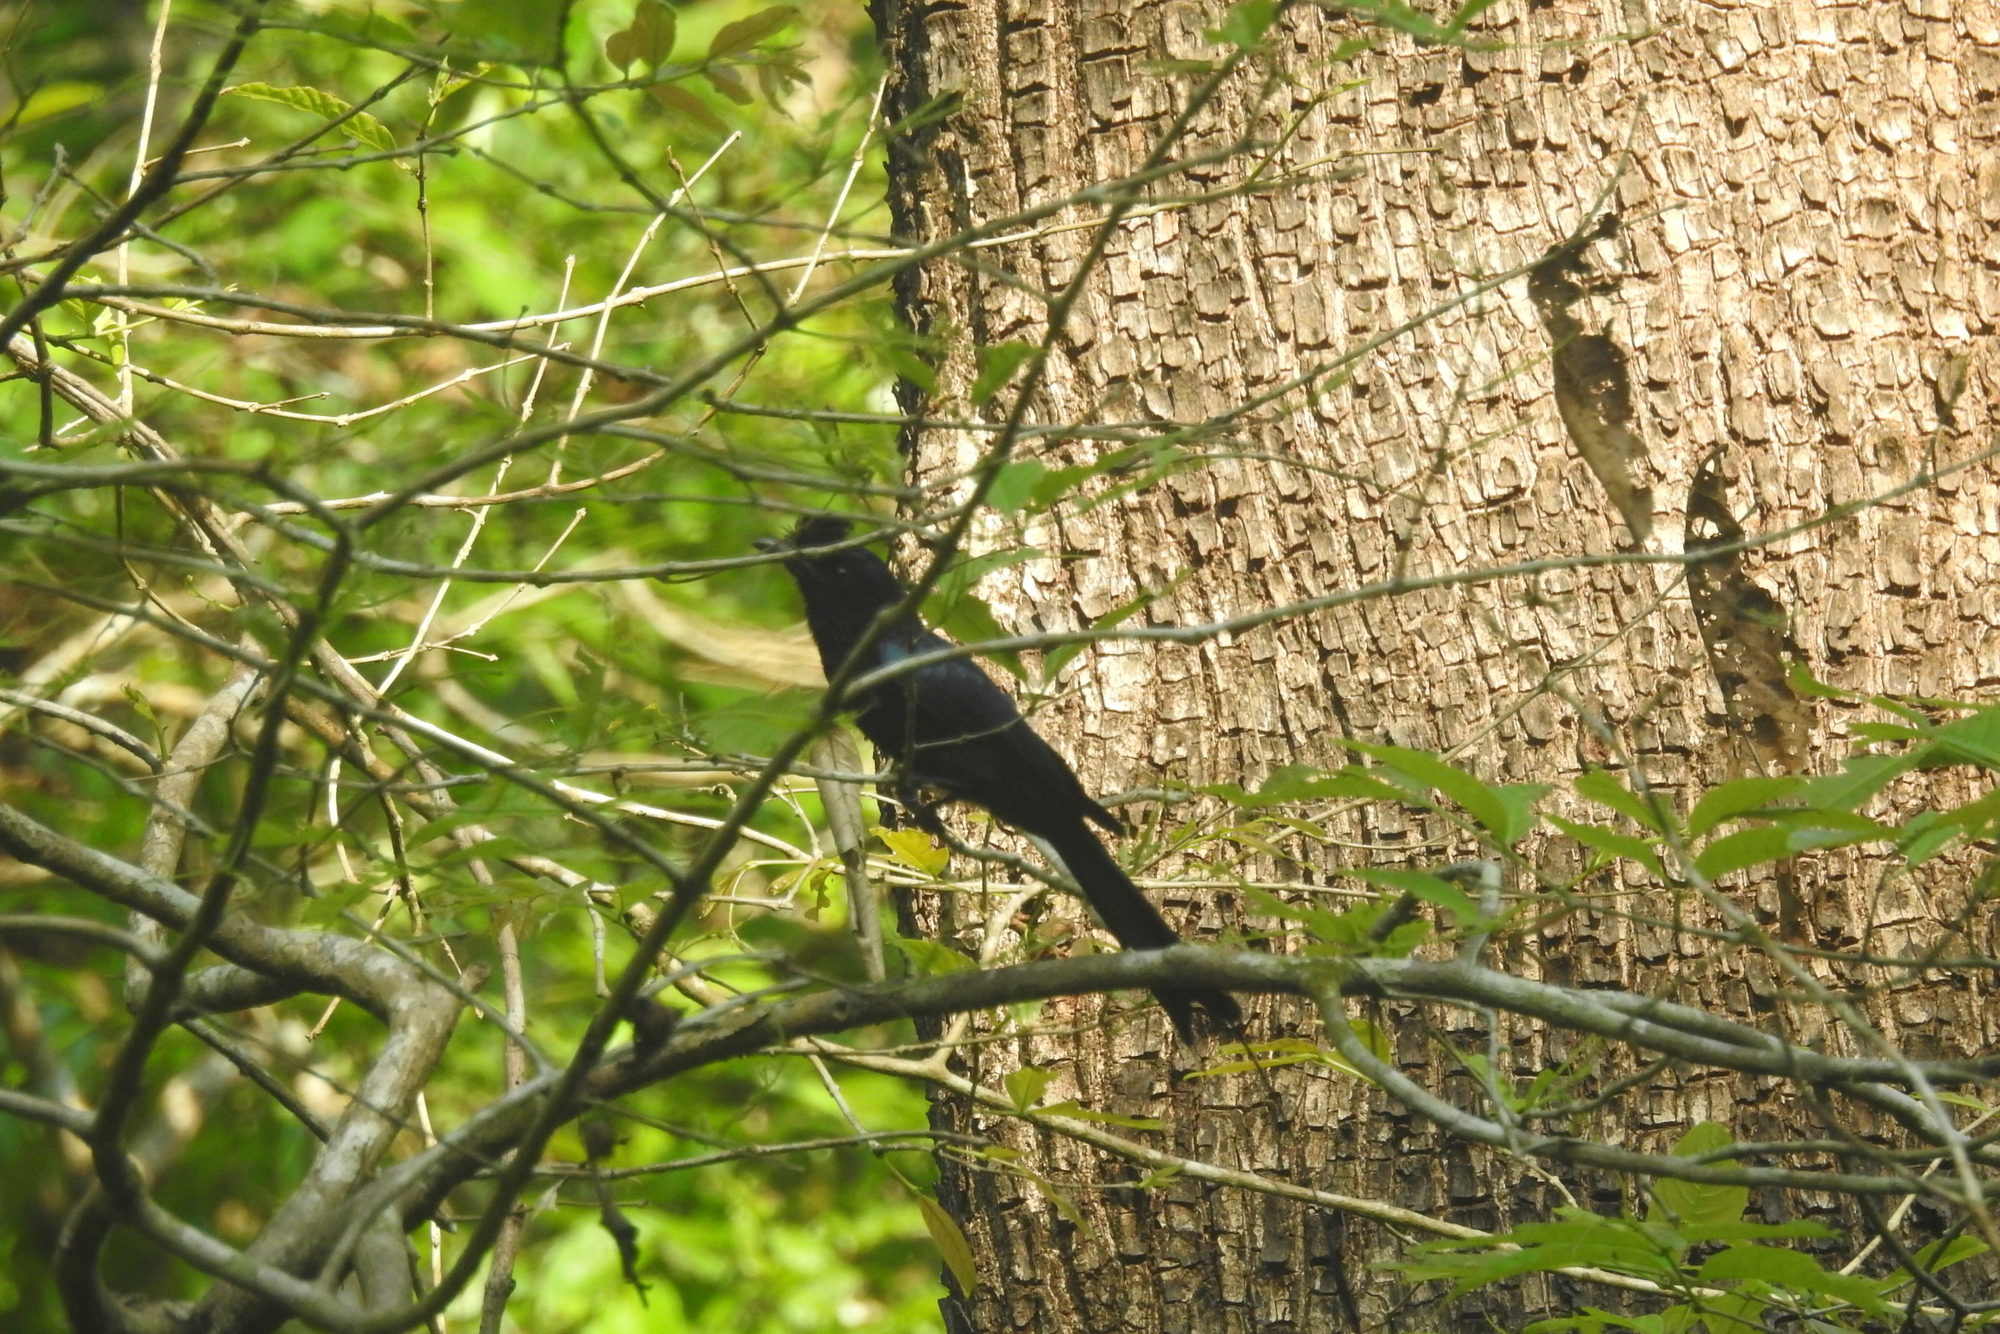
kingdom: Animalia
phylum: Chordata
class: Aves
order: Passeriformes
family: Dicruridae
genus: Dicrurus
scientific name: Dicrurus paradiseus
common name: Greater racket-tailed drongo
